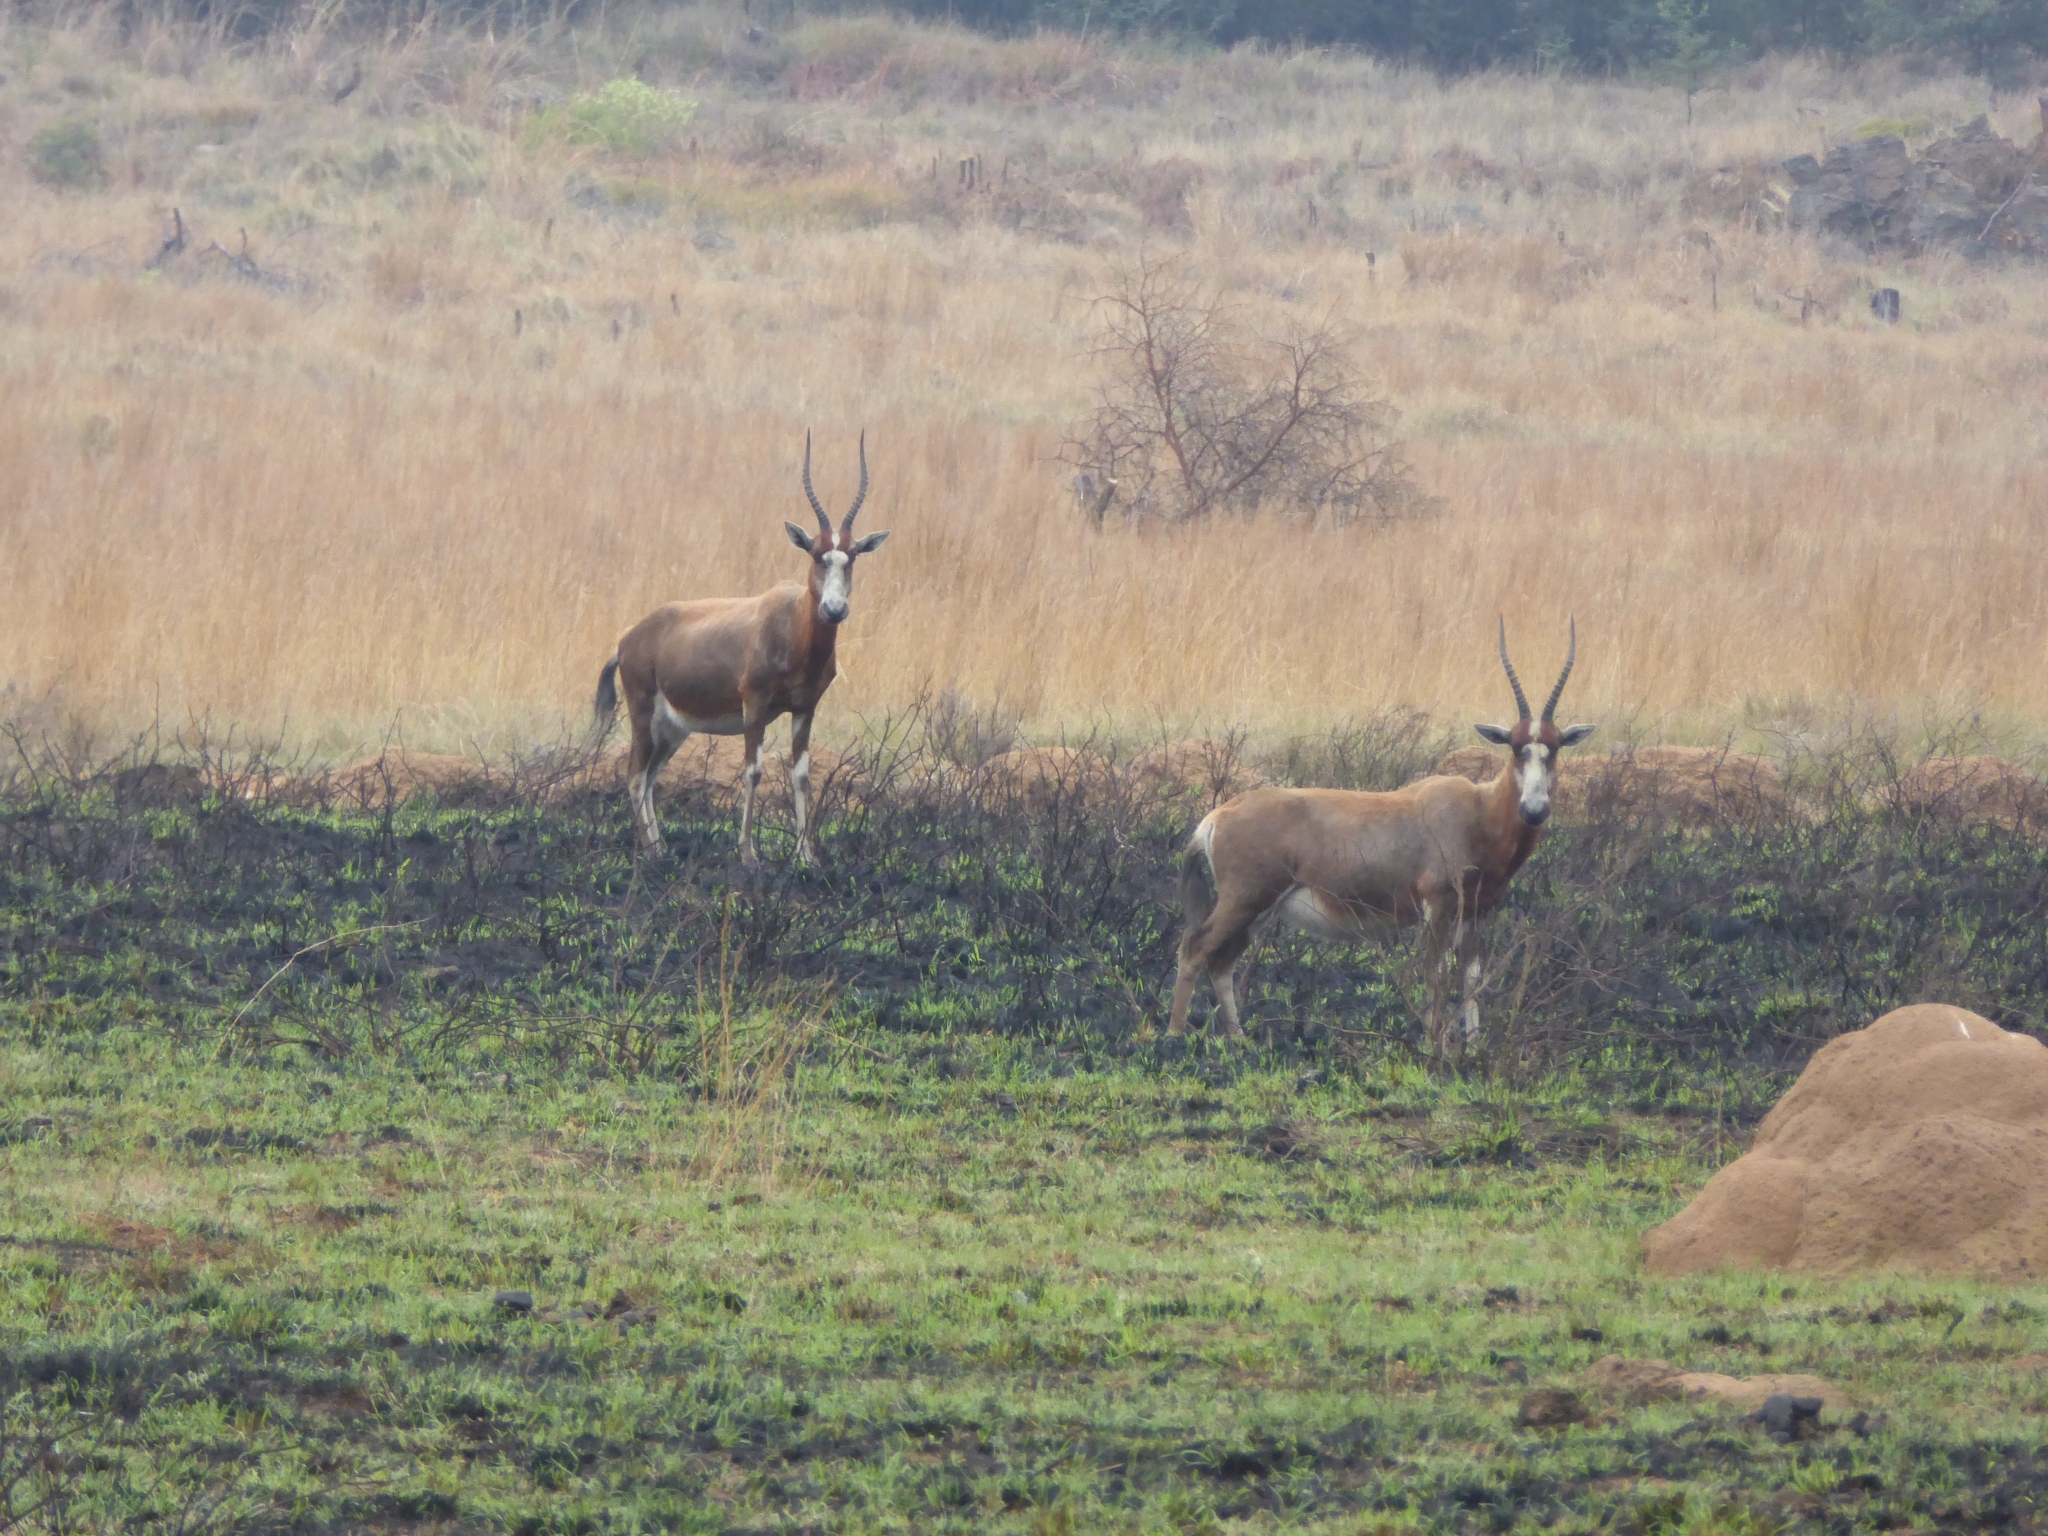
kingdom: Animalia
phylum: Chordata
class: Mammalia
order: Artiodactyla
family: Bovidae
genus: Damaliscus
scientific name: Damaliscus pygargus
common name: Bontebok
